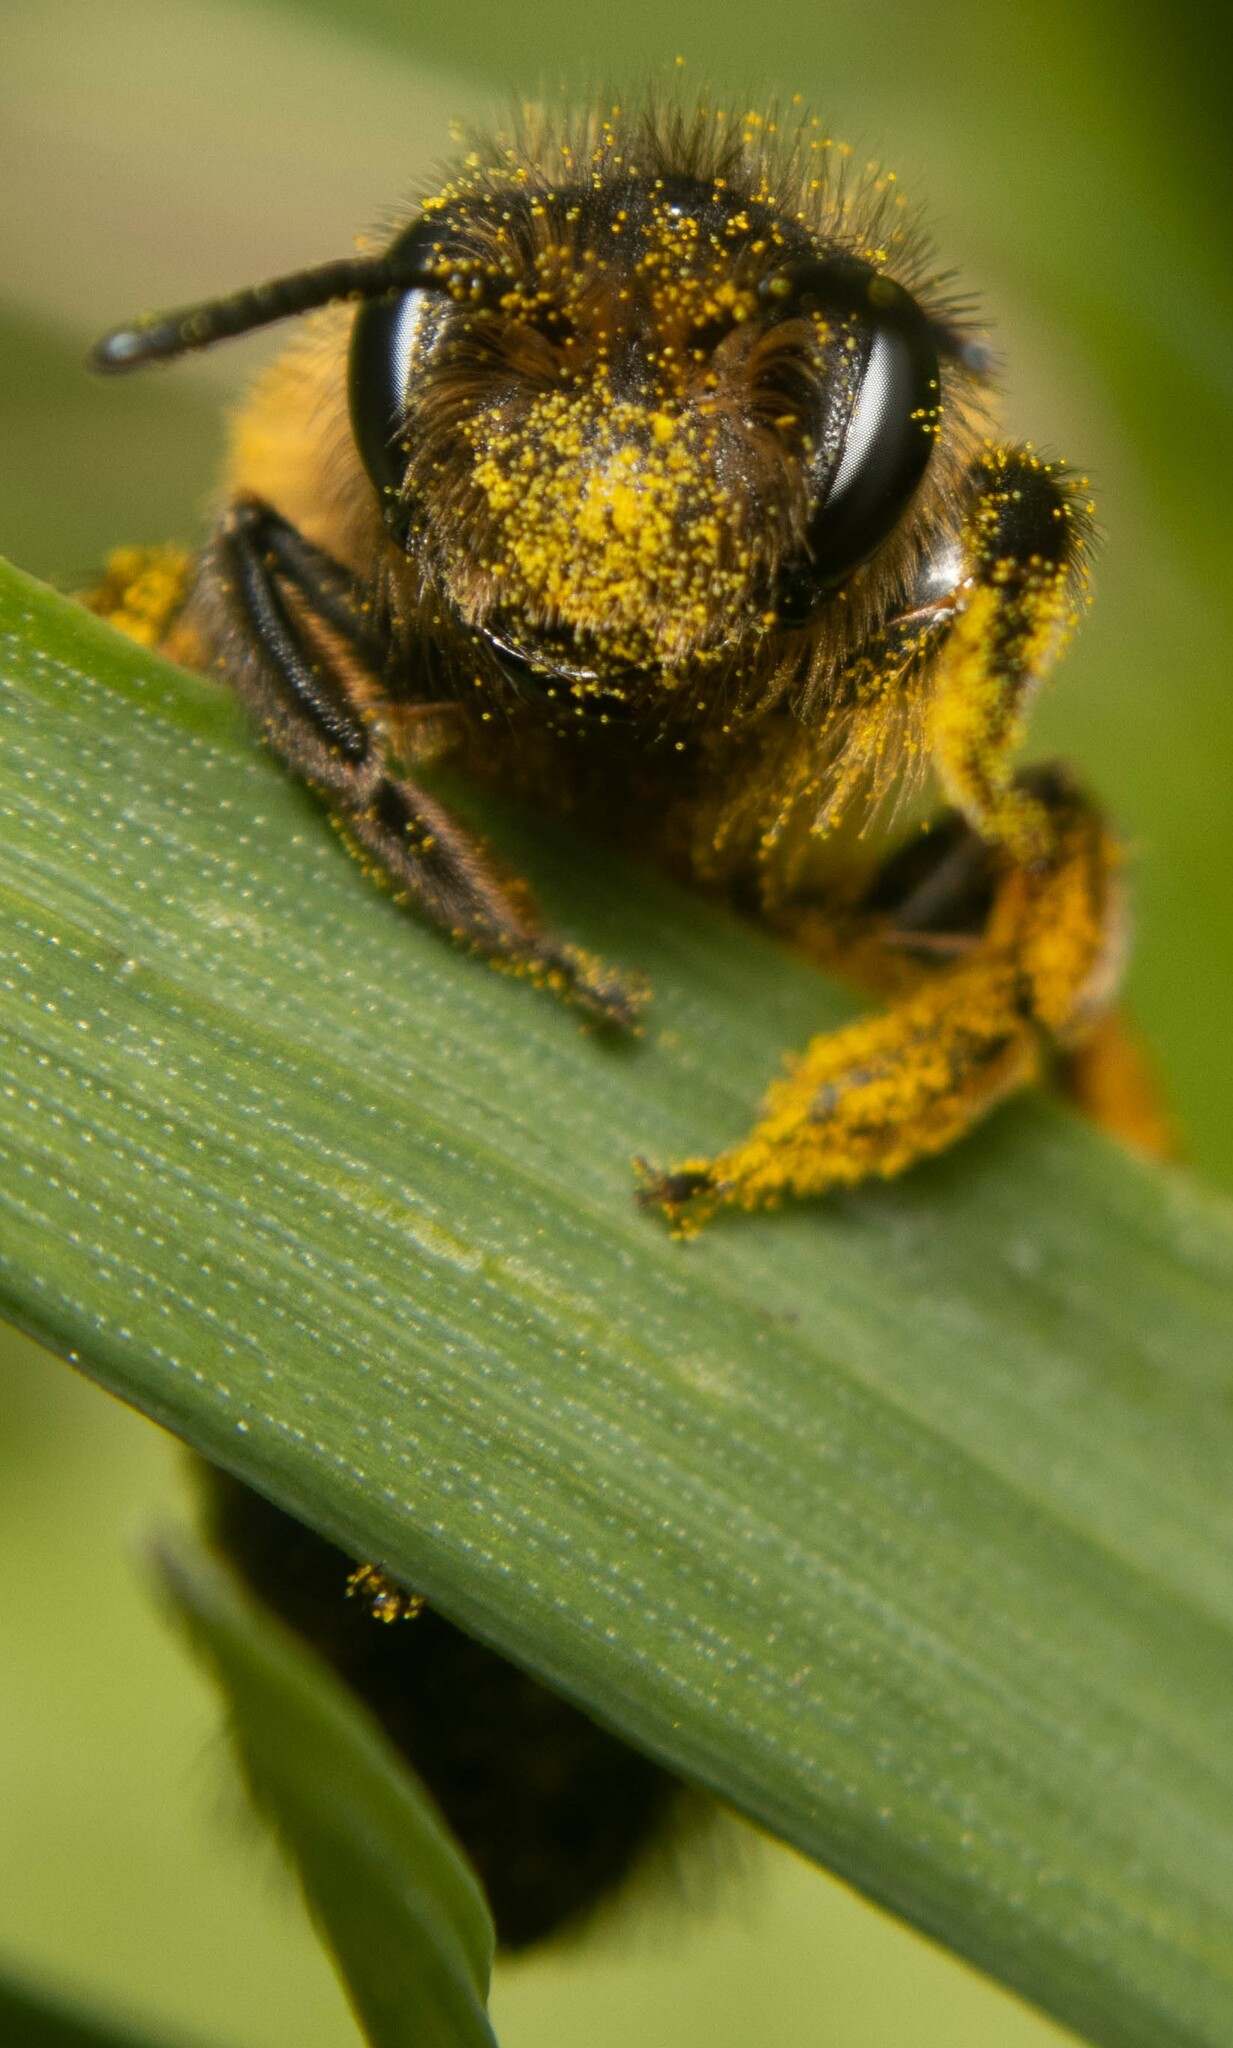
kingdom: Animalia
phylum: Arthropoda
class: Insecta
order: Hymenoptera
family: Andrenidae
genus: Andrena
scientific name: Andrena flavipes
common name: Yellow-legged mining bee
